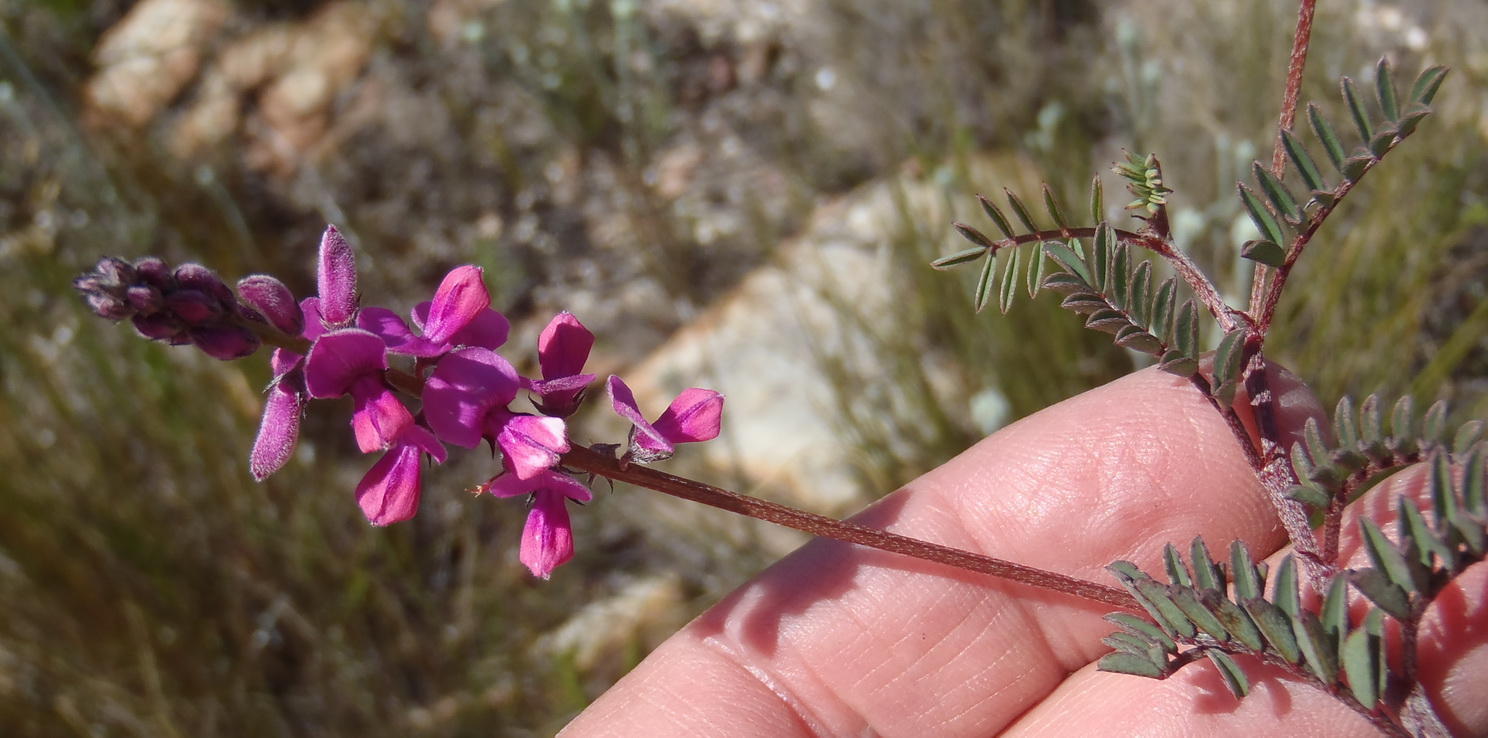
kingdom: Plantae
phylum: Tracheophyta
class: Magnoliopsida
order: Fabales
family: Fabaceae
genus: Indigofera
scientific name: Indigofera declinata
